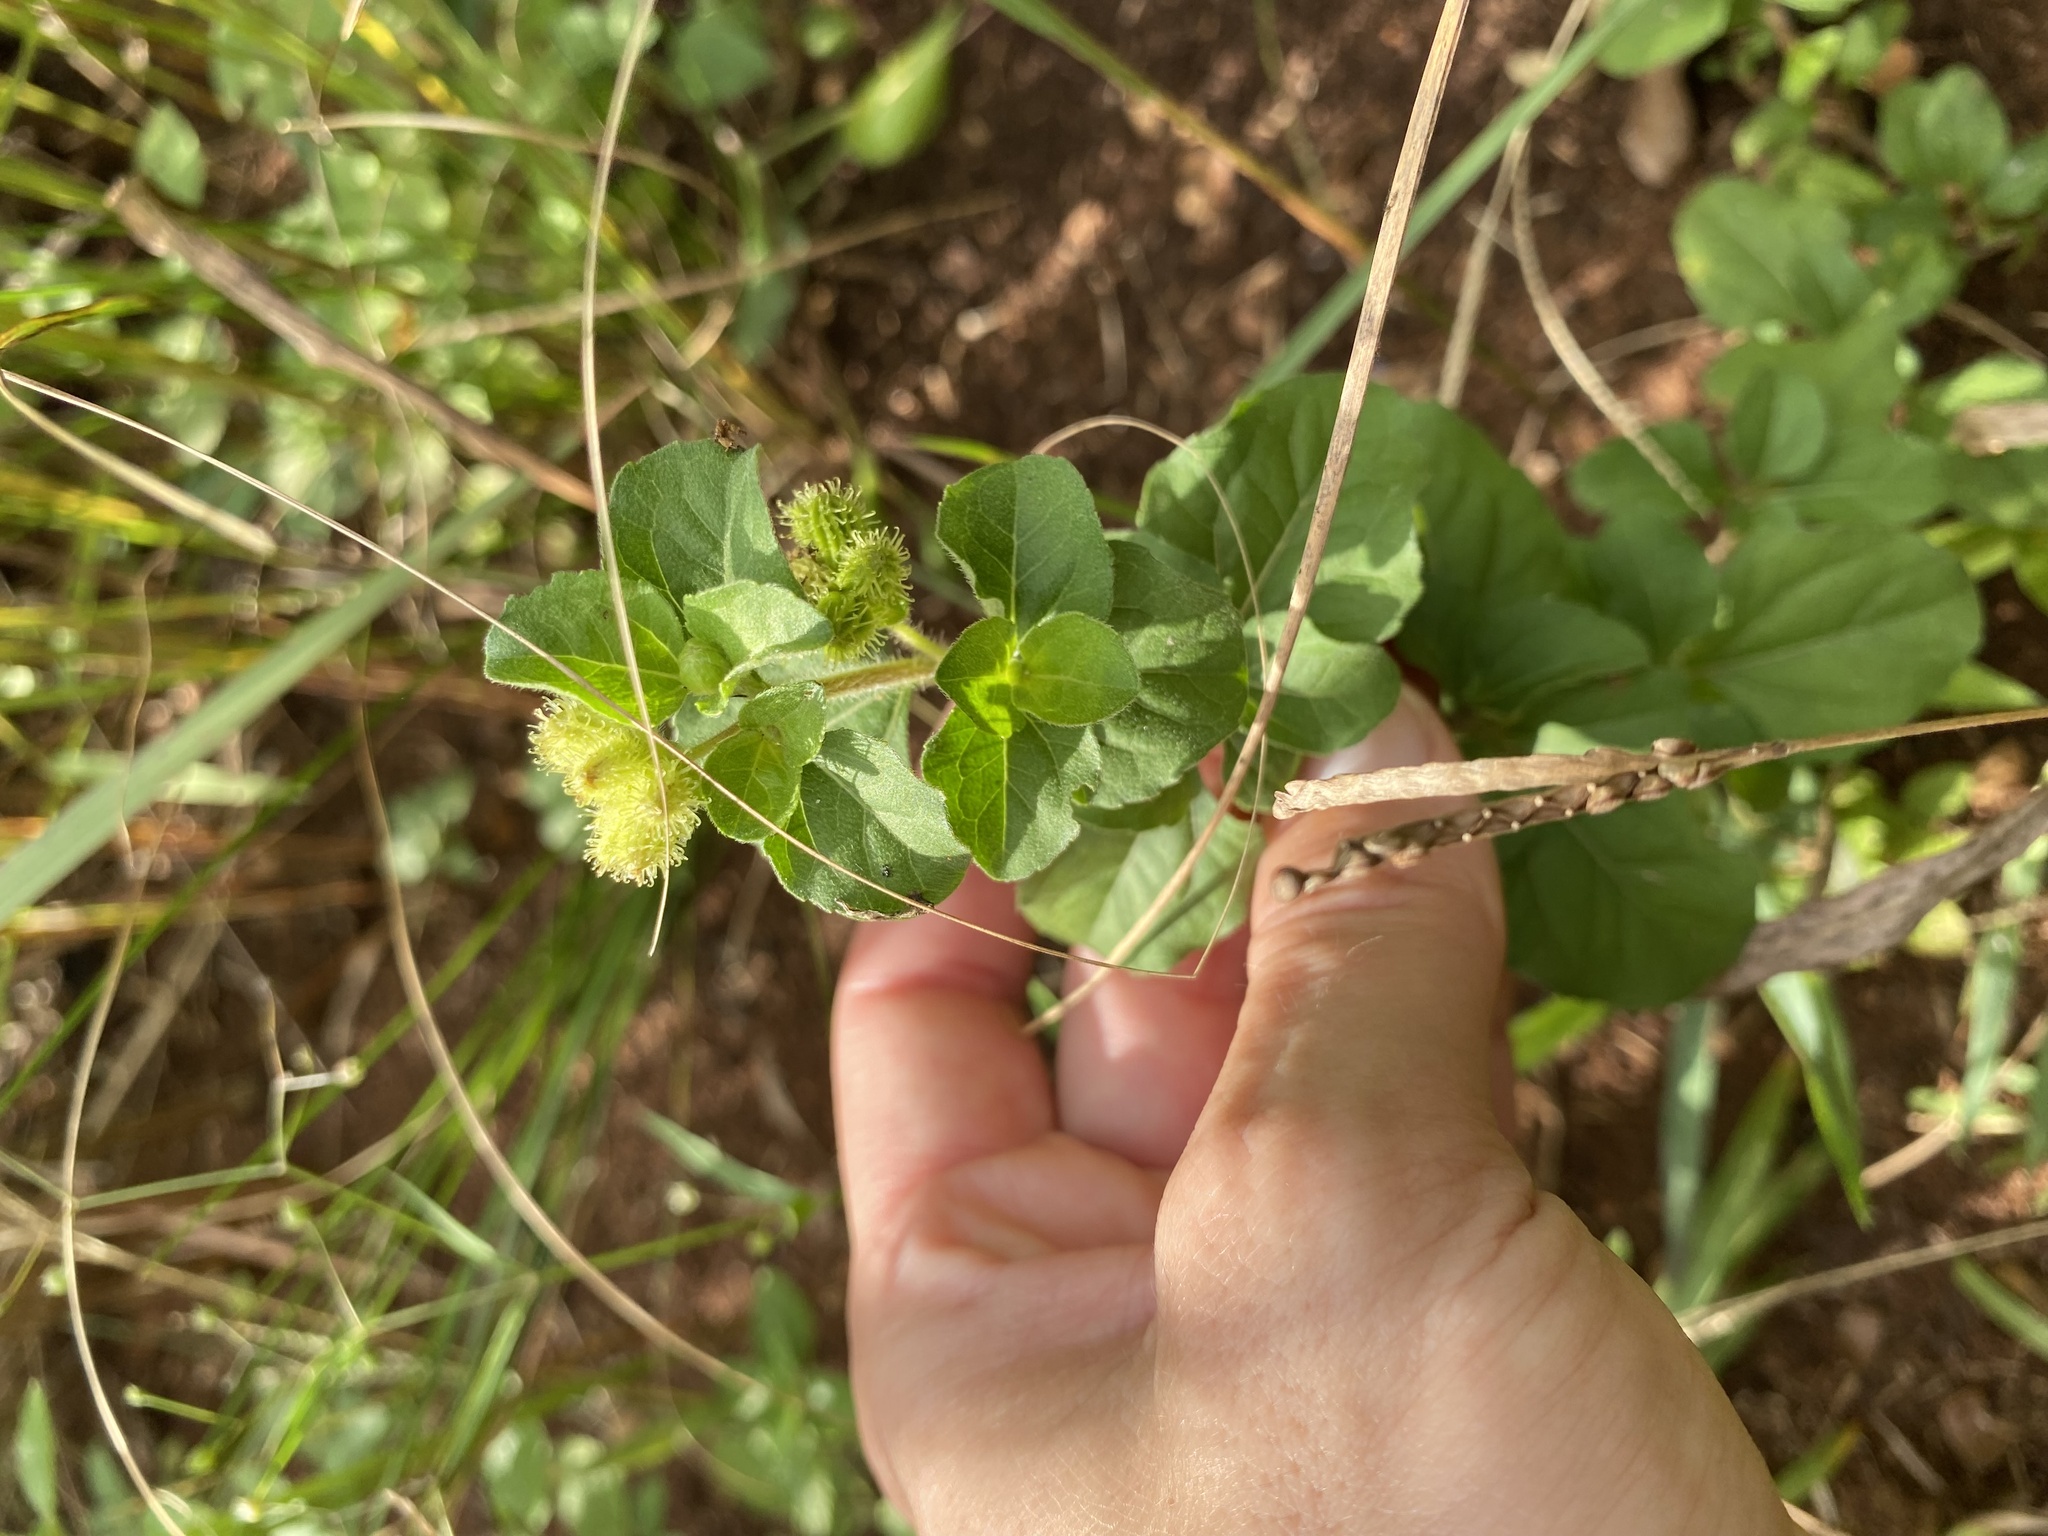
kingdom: Plantae
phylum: Tracheophyta
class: Magnoliopsida
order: Asterales
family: Asteraceae
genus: Acanthospermum
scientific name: Acanthospermum australe
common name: Paraguayan starbur
